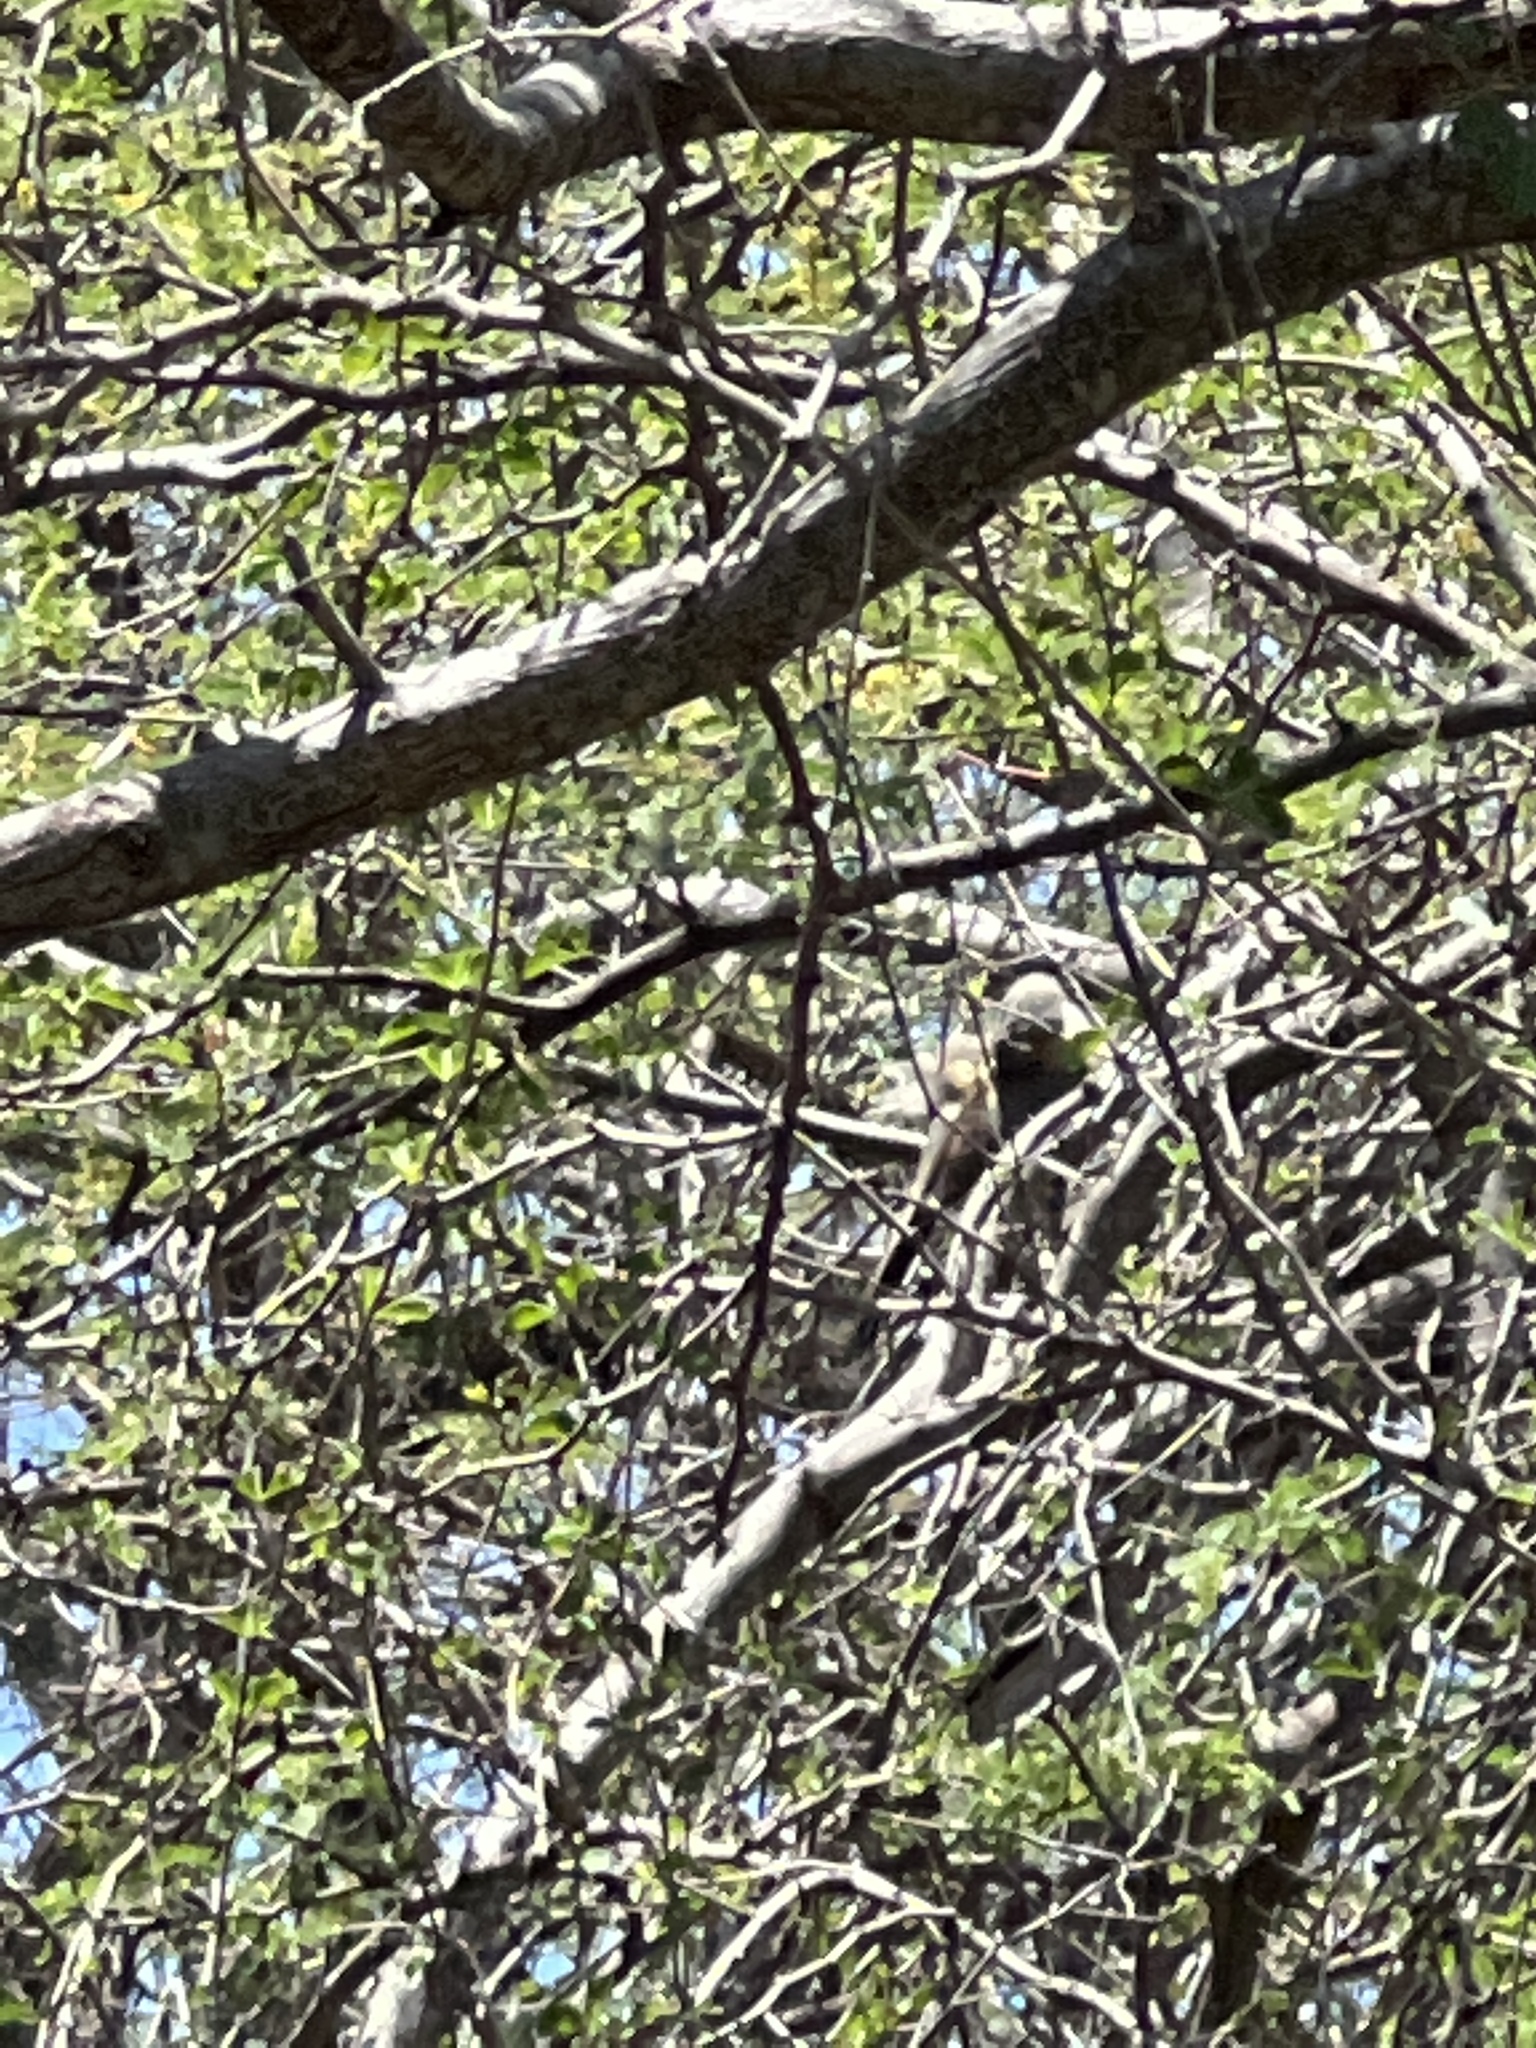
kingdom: Animalia
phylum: Chordata
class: Aves
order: Cuculiformes
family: Cuculidae
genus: Coccyzus
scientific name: Coccyzus minor
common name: Mangrove cuckoo
